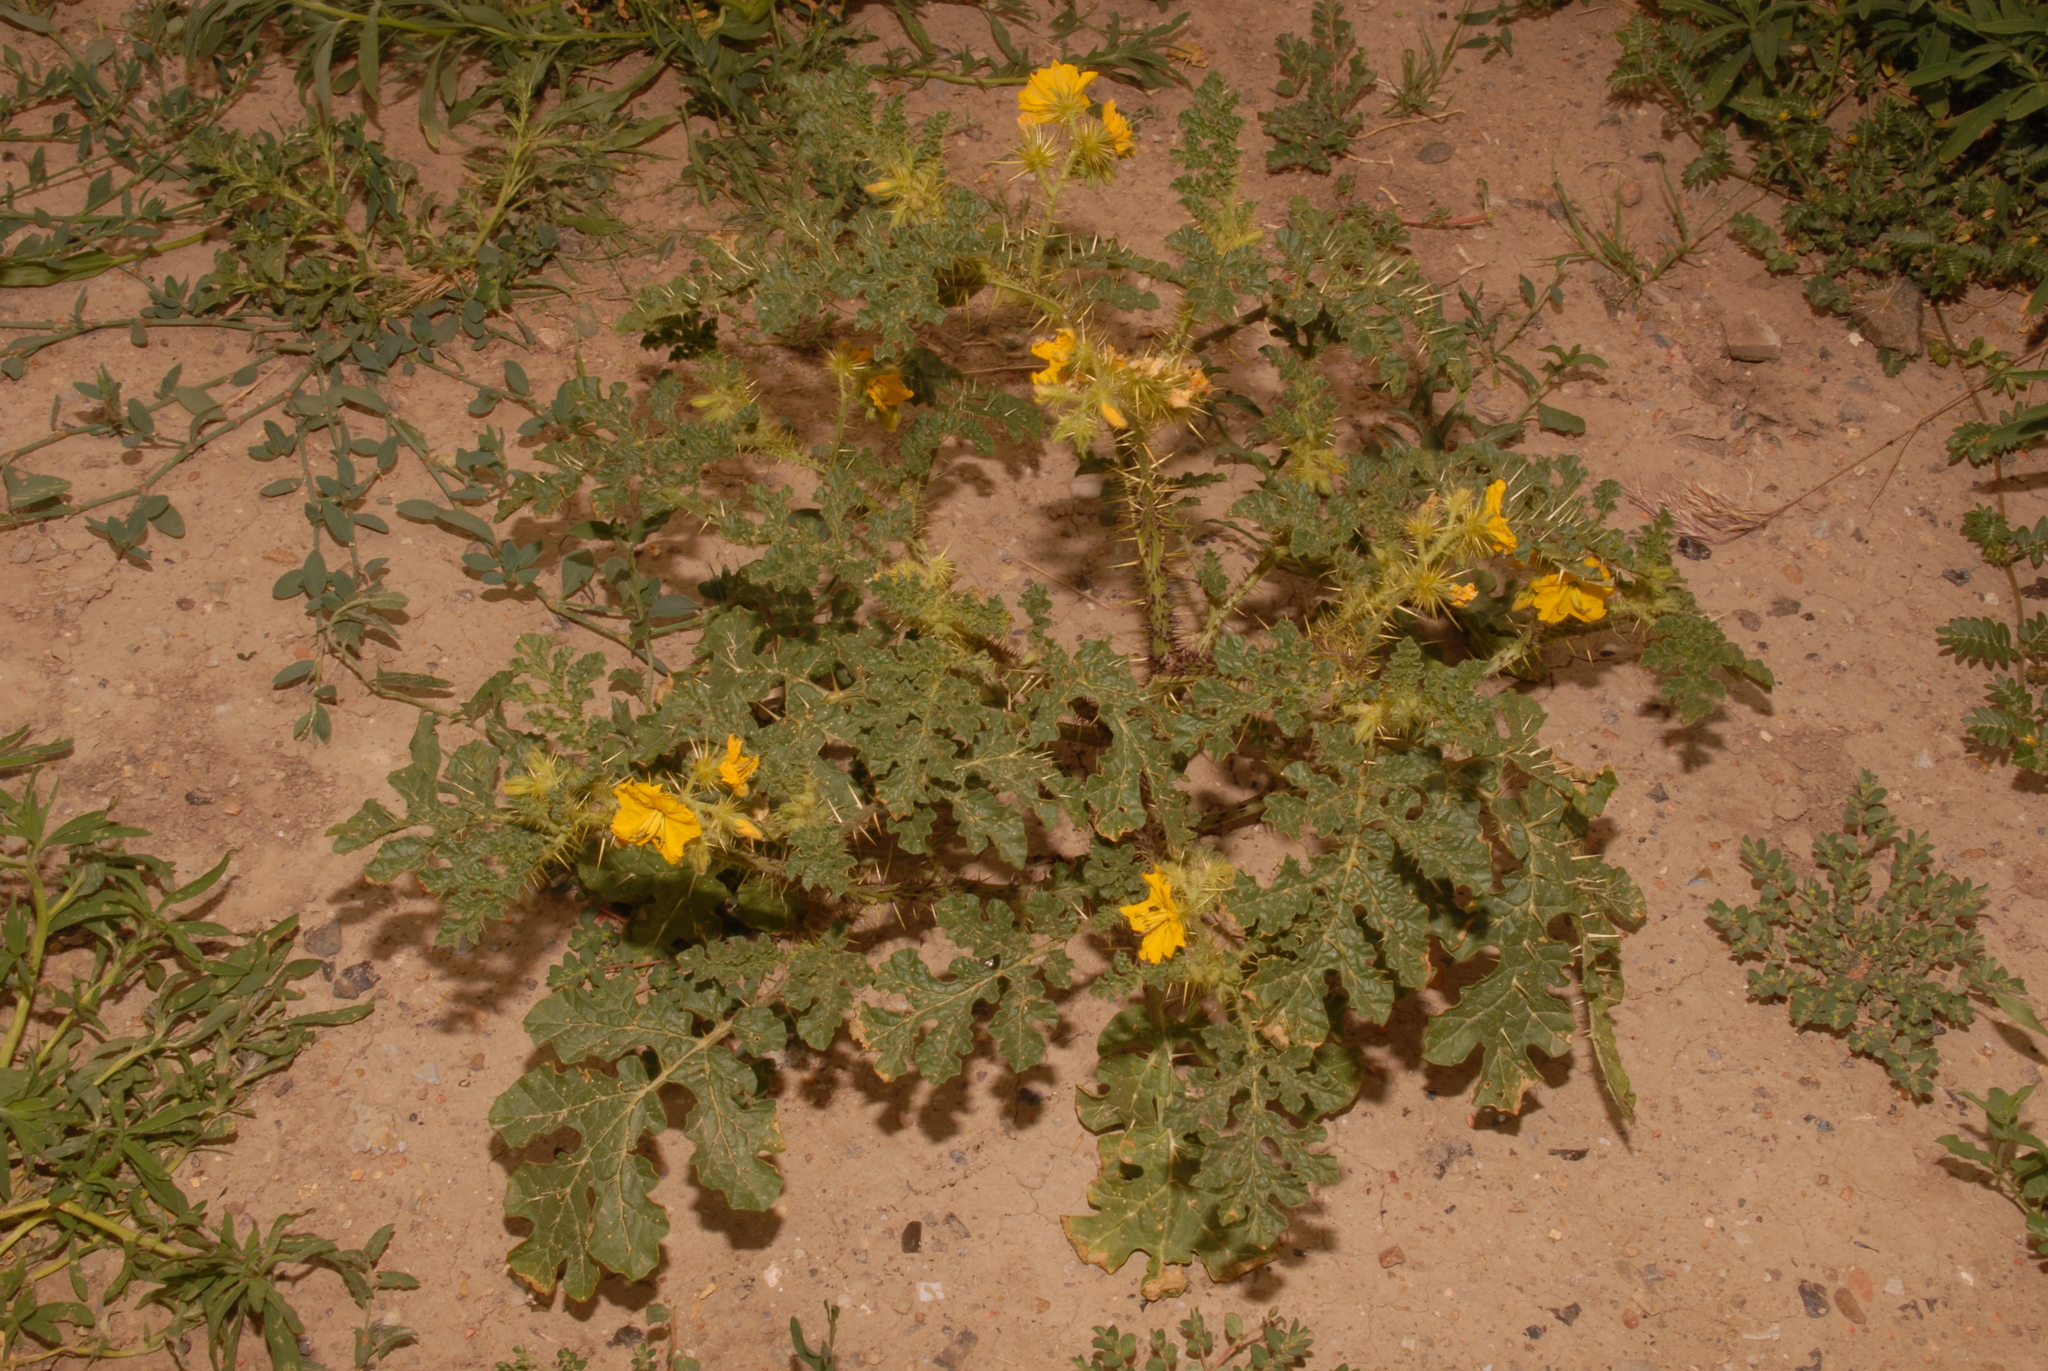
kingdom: Plantae
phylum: Tracheophyta
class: Magnoliopsida
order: Solanales
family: Solanaceae
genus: Solanum
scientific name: Solanum angustifolium
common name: Buffalobur nightshade
